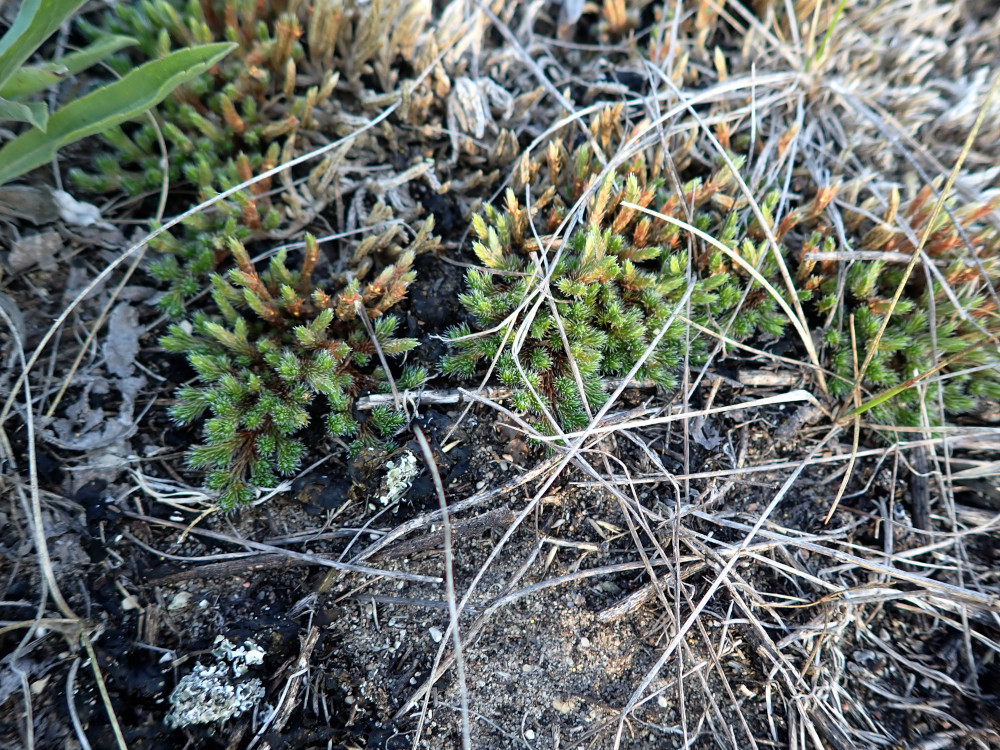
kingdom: Plantae
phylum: Tracheophyta
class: Lycopodiopsida
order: Selaginellales
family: Selaginellaceae
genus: Selaginella
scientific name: Selaginella densa
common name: Mountain spike-moss
